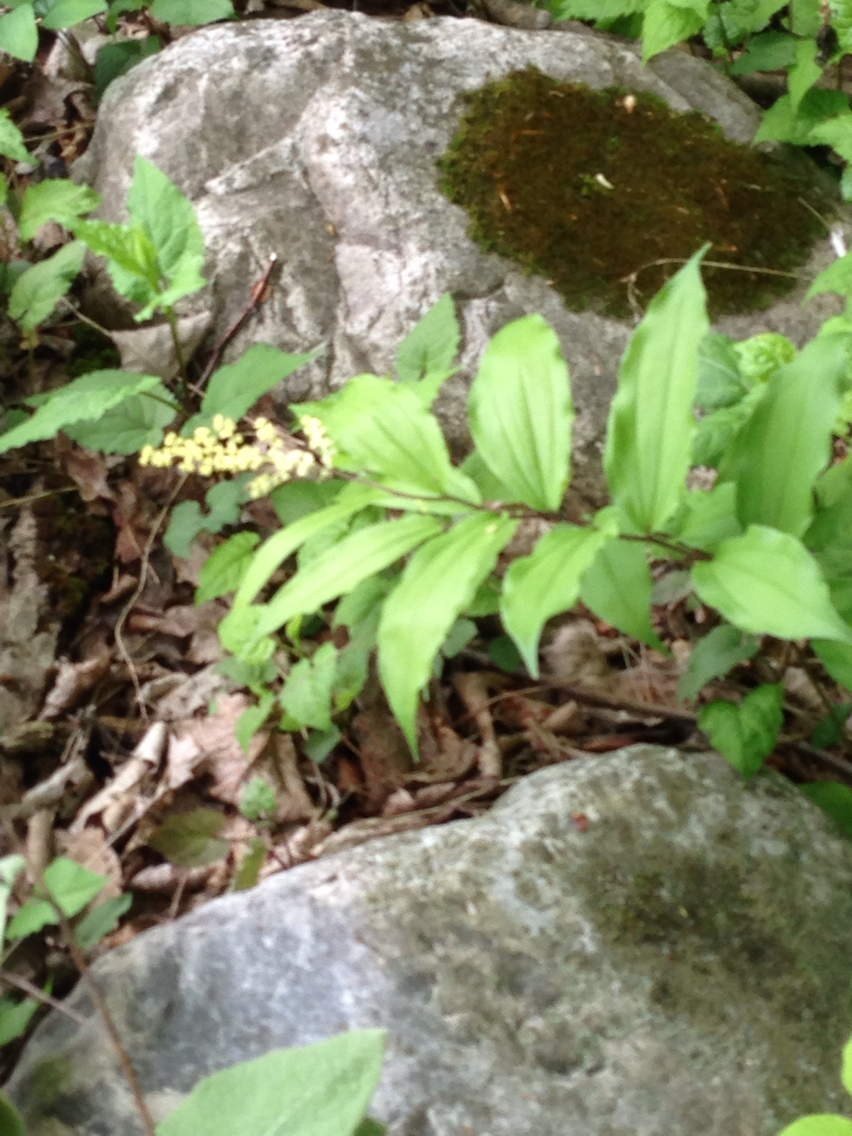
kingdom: Plantae
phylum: Tracheophyta
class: Liliopsida
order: Asparagales
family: Asparagaceae
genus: Maianthemum
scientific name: Maianthemum racemosum
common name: False spikenard
